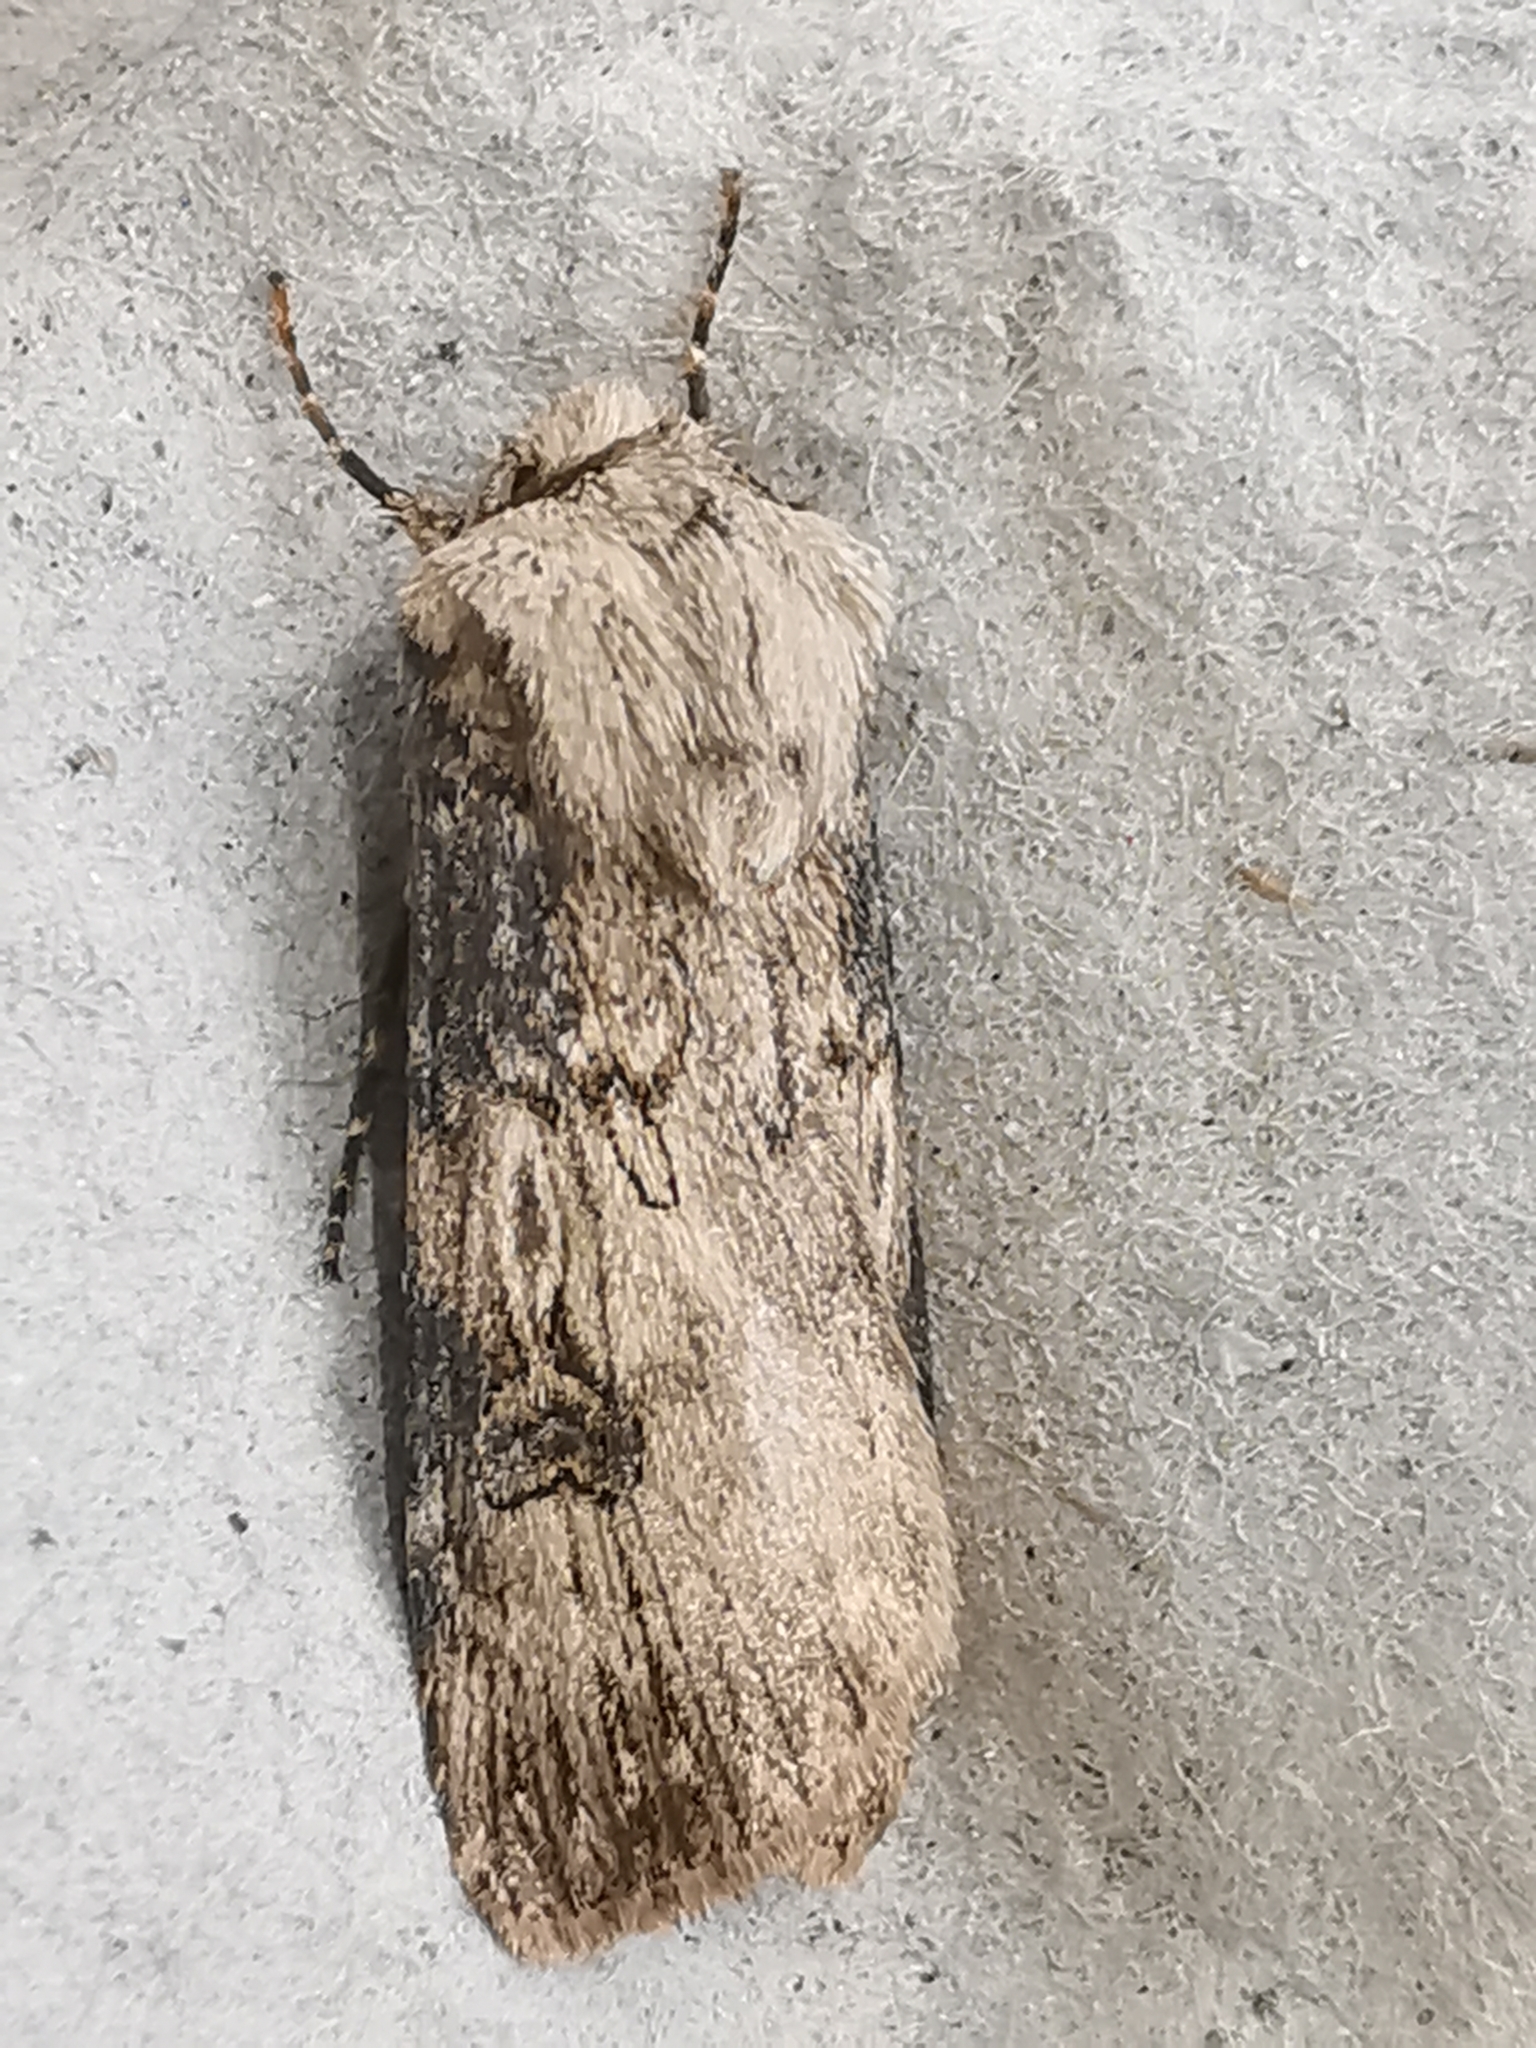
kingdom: Animalia
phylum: Arthropoda
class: Insecta
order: Lepidoptera
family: Noctuidae
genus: Agrotis
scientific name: Agrotis puta
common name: Shuttle-shaped dart
